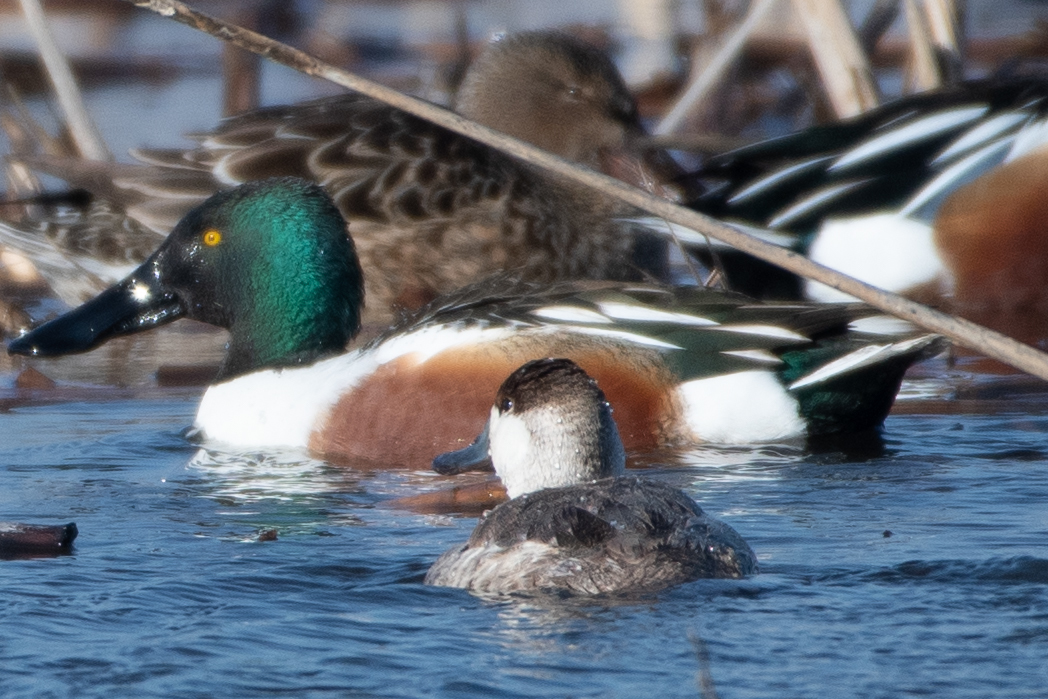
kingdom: Animalia
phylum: Chordata
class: Aves
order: Anseriformes
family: Anatidae
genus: Spatula
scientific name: Spatula clypeata
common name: Northern shoveler
